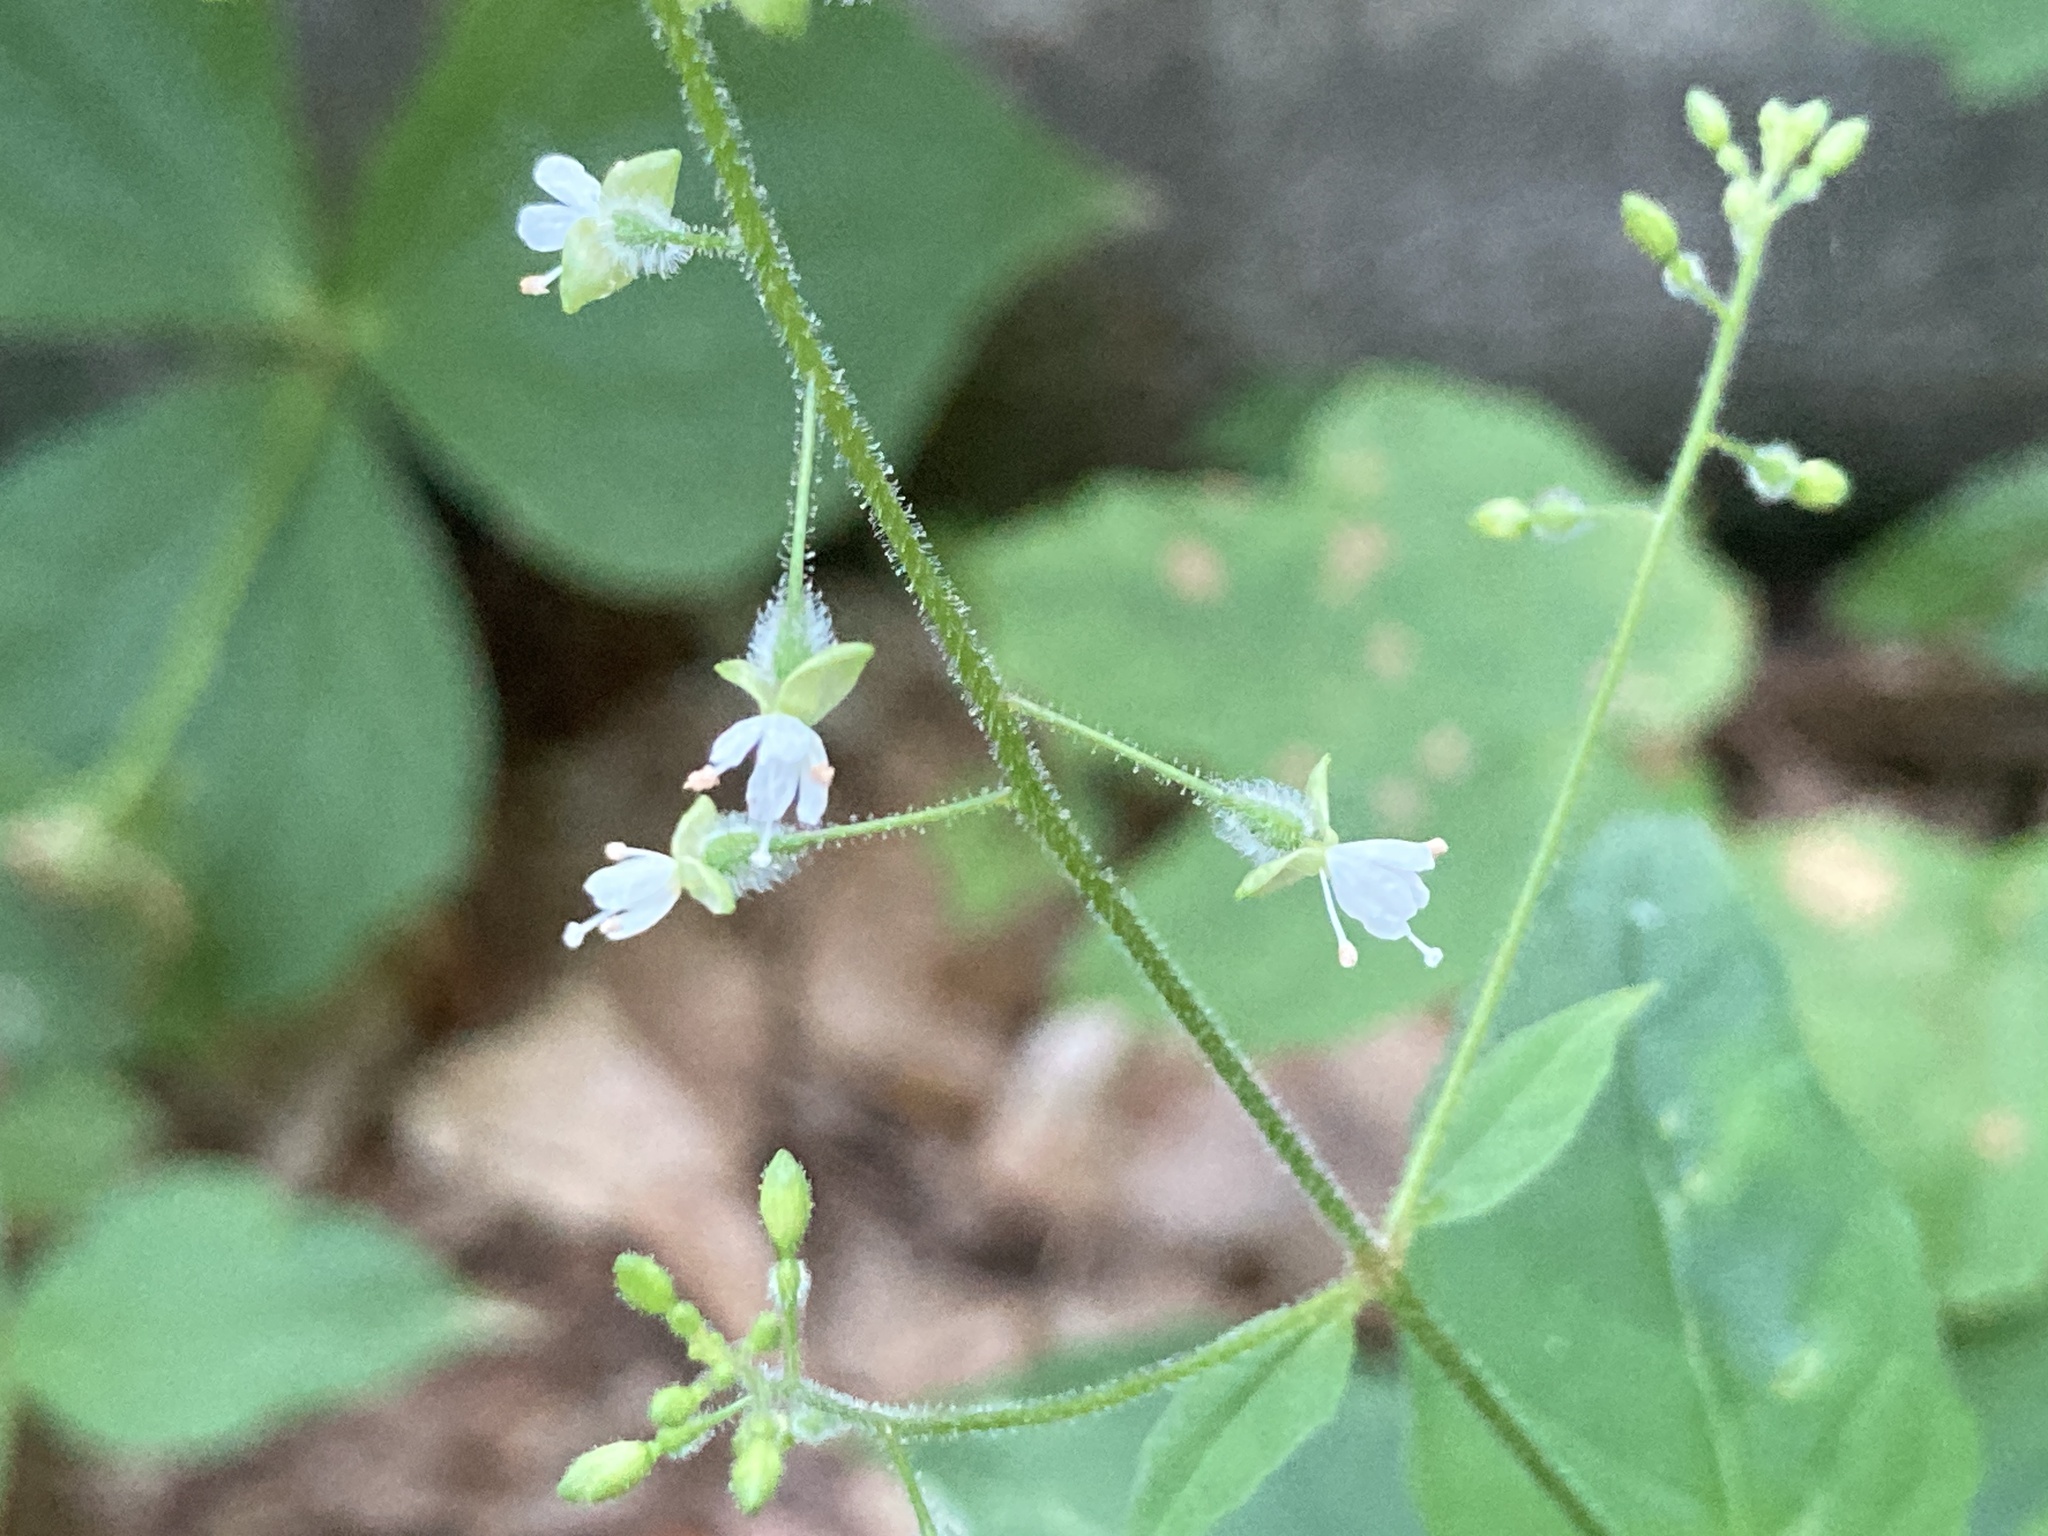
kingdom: Plantae
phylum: Tracheophyta
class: Magnoliopsida
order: Myrtales
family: Onagraceae
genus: Circaea
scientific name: Circaea canadensis
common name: Broad-leaved enchanter's nightshade
